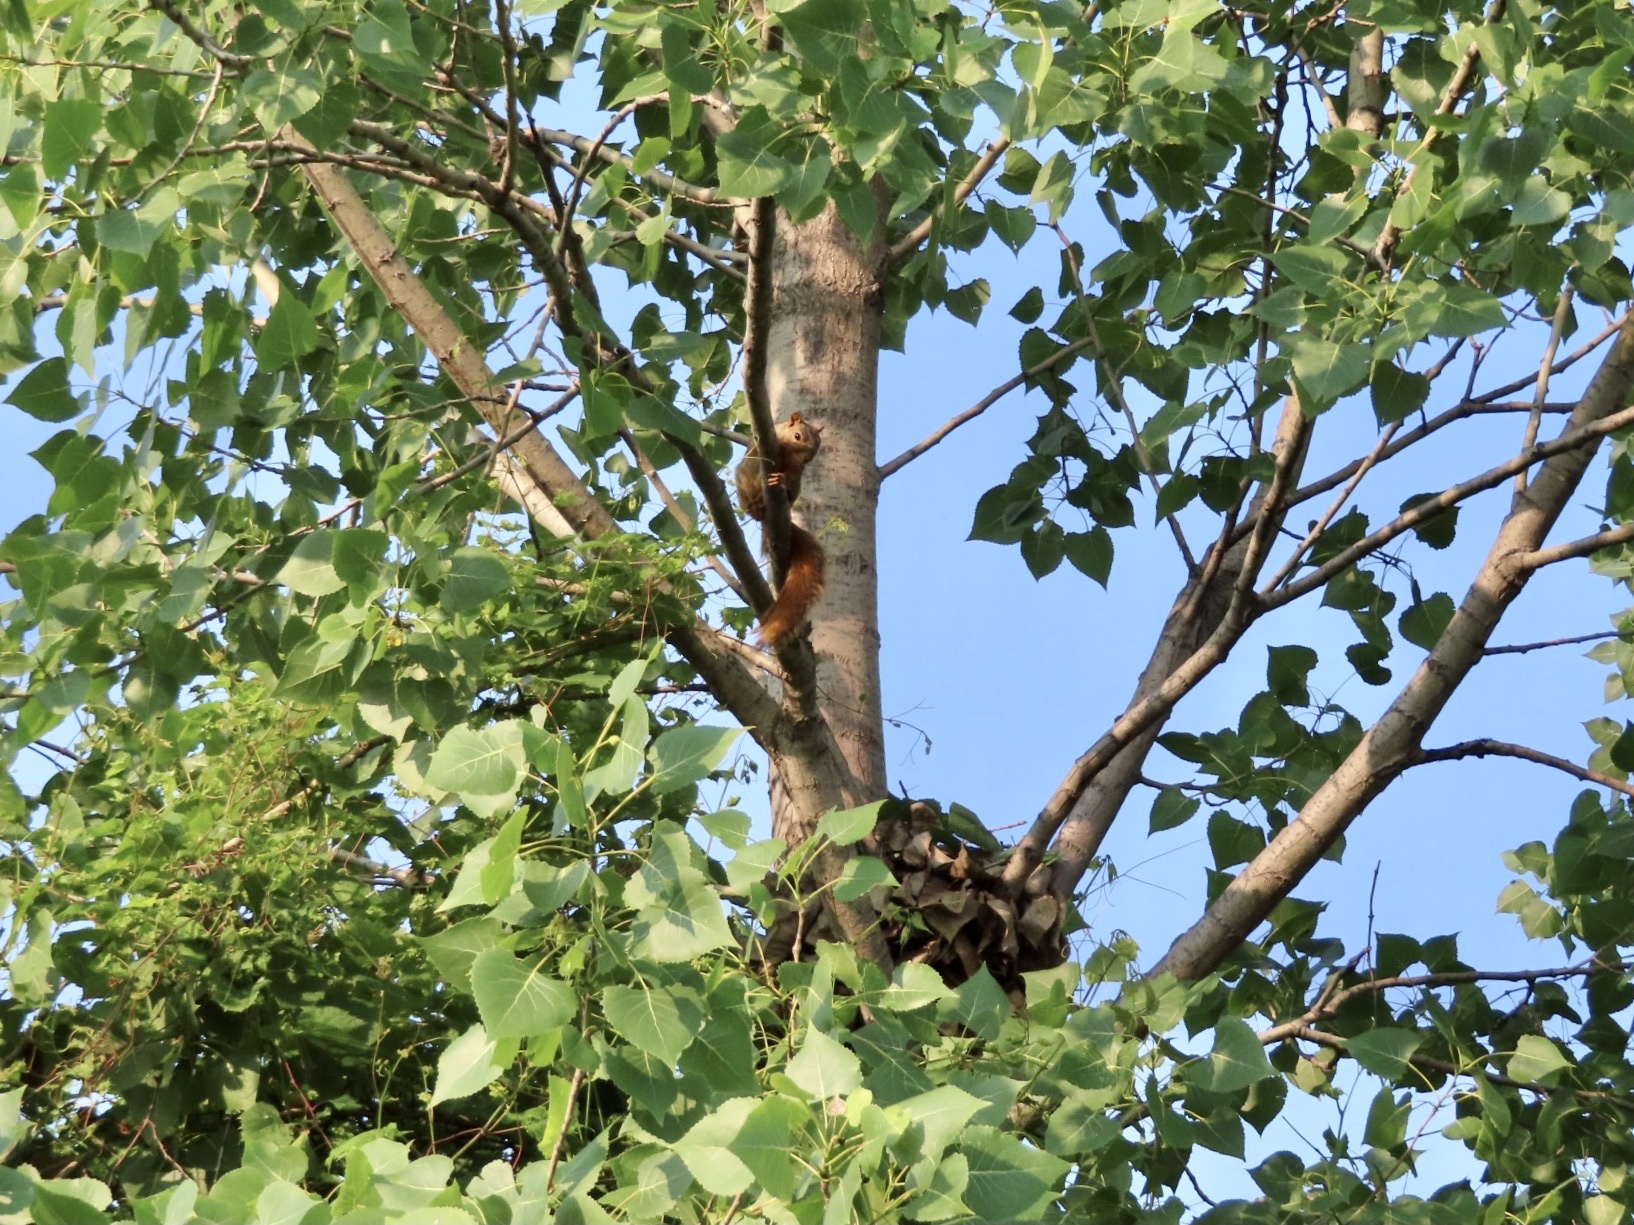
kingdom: Animalia
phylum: Chordata
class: Mammalia
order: Rodentia
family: Sciuridae
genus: Sciurus
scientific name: Sciurus niger
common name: Fox squirrel
